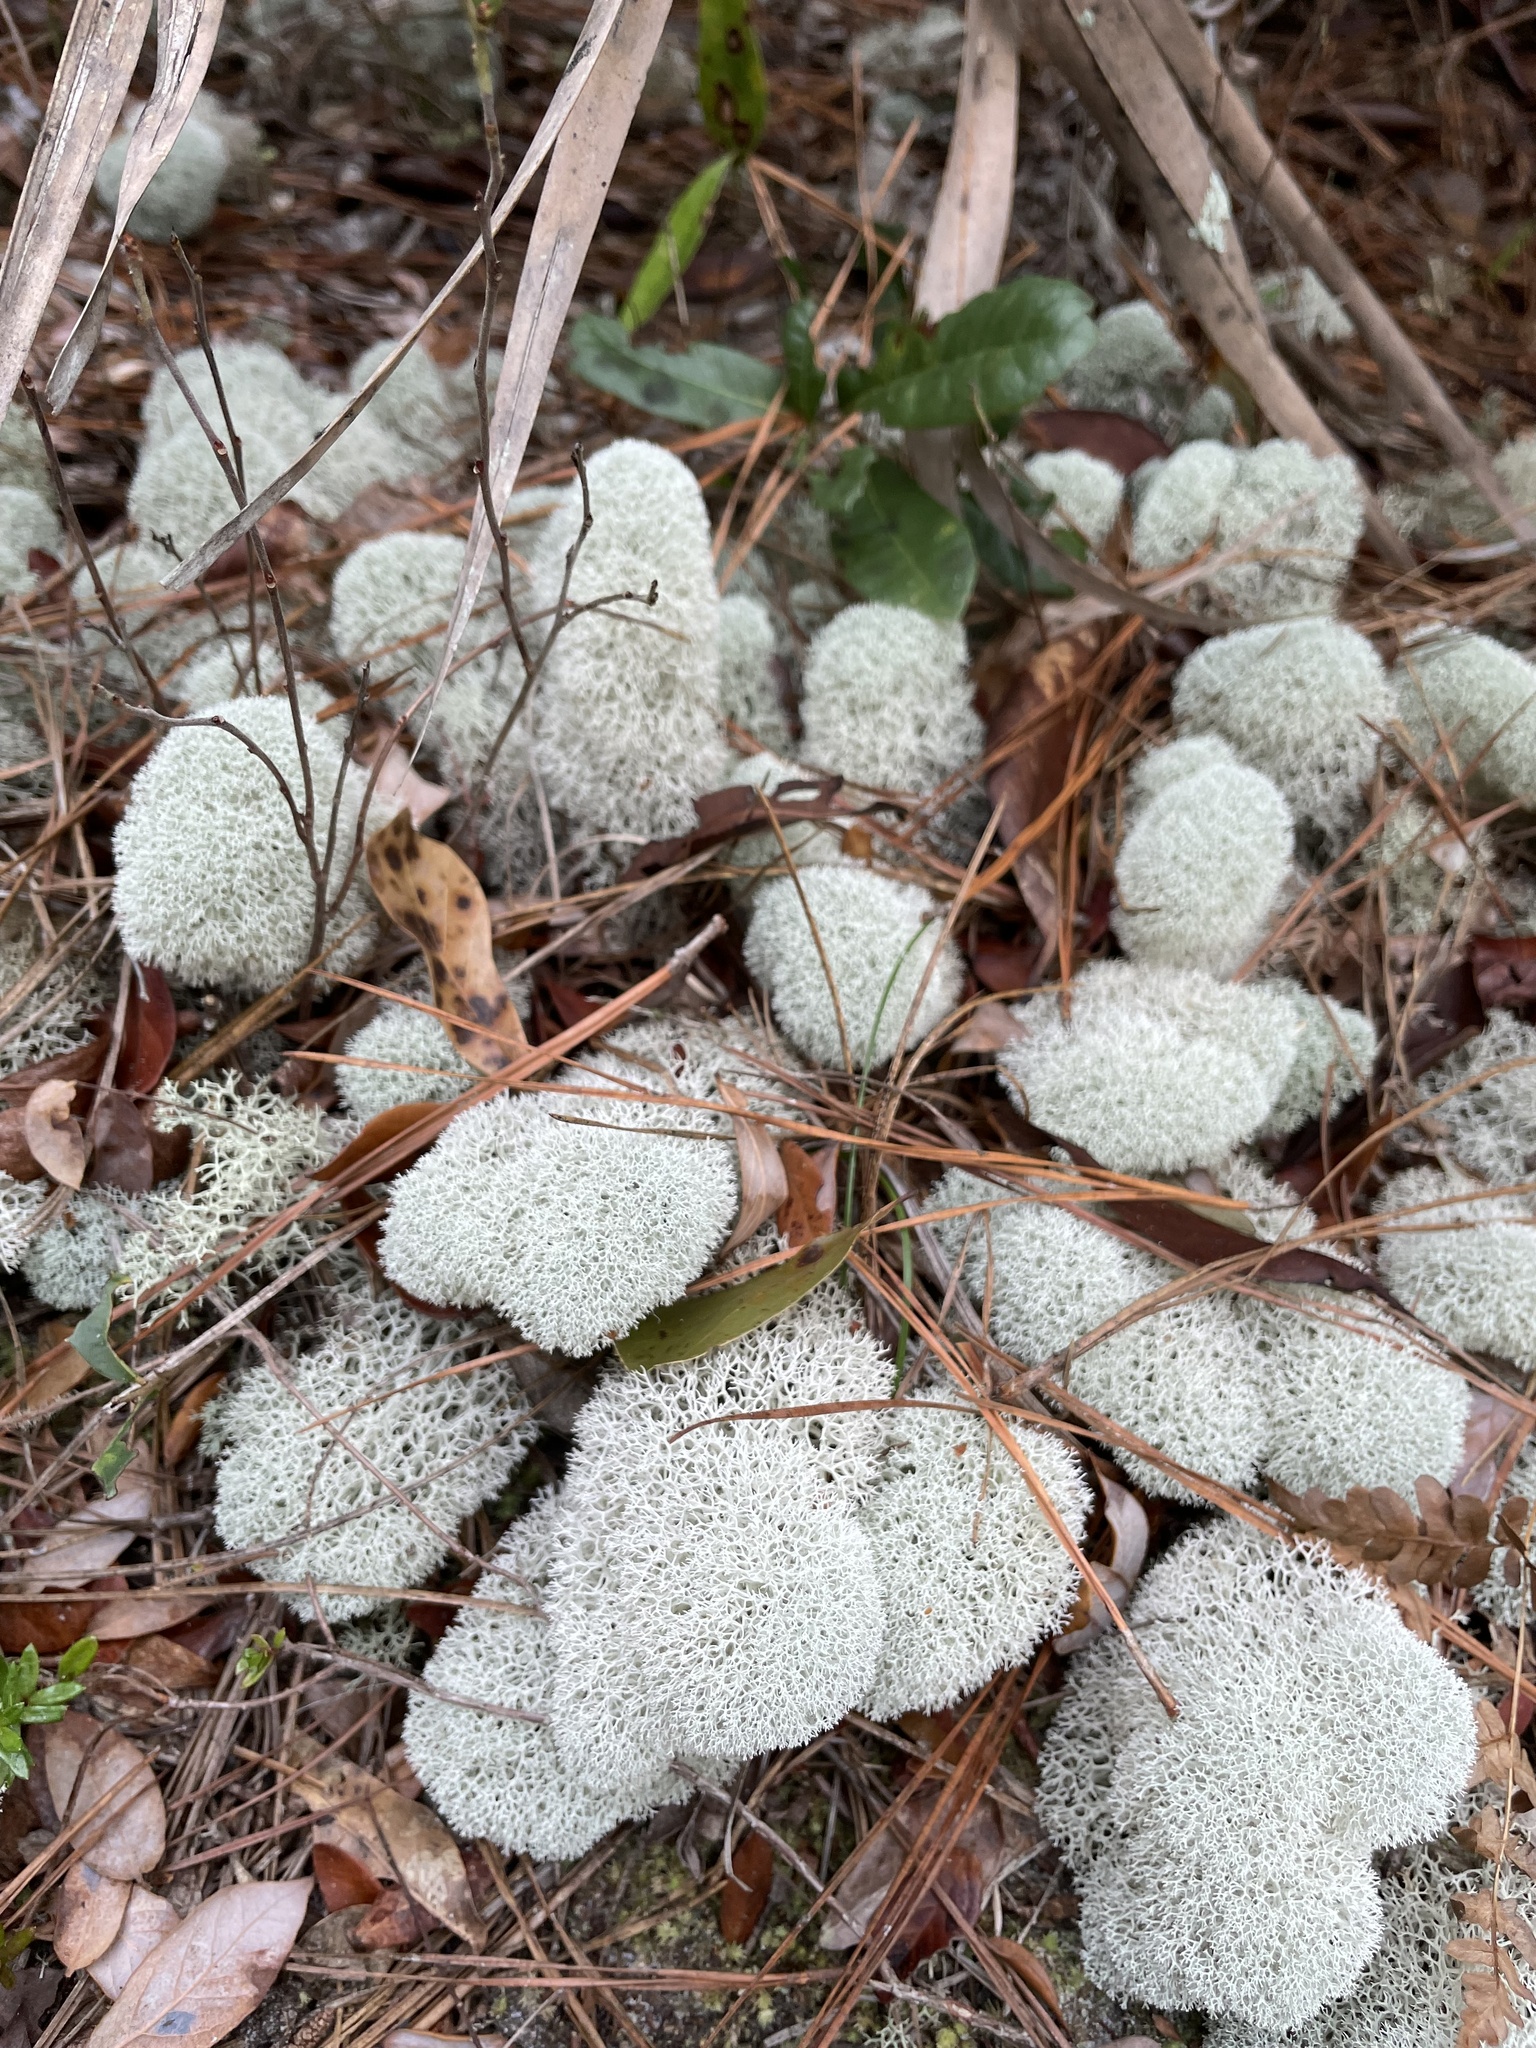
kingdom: Fungi
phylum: Ascomycota
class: Lecanoromycetes
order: Lecanorales
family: Cladoniaceae
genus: Cladonia
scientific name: Cladonia evansii
